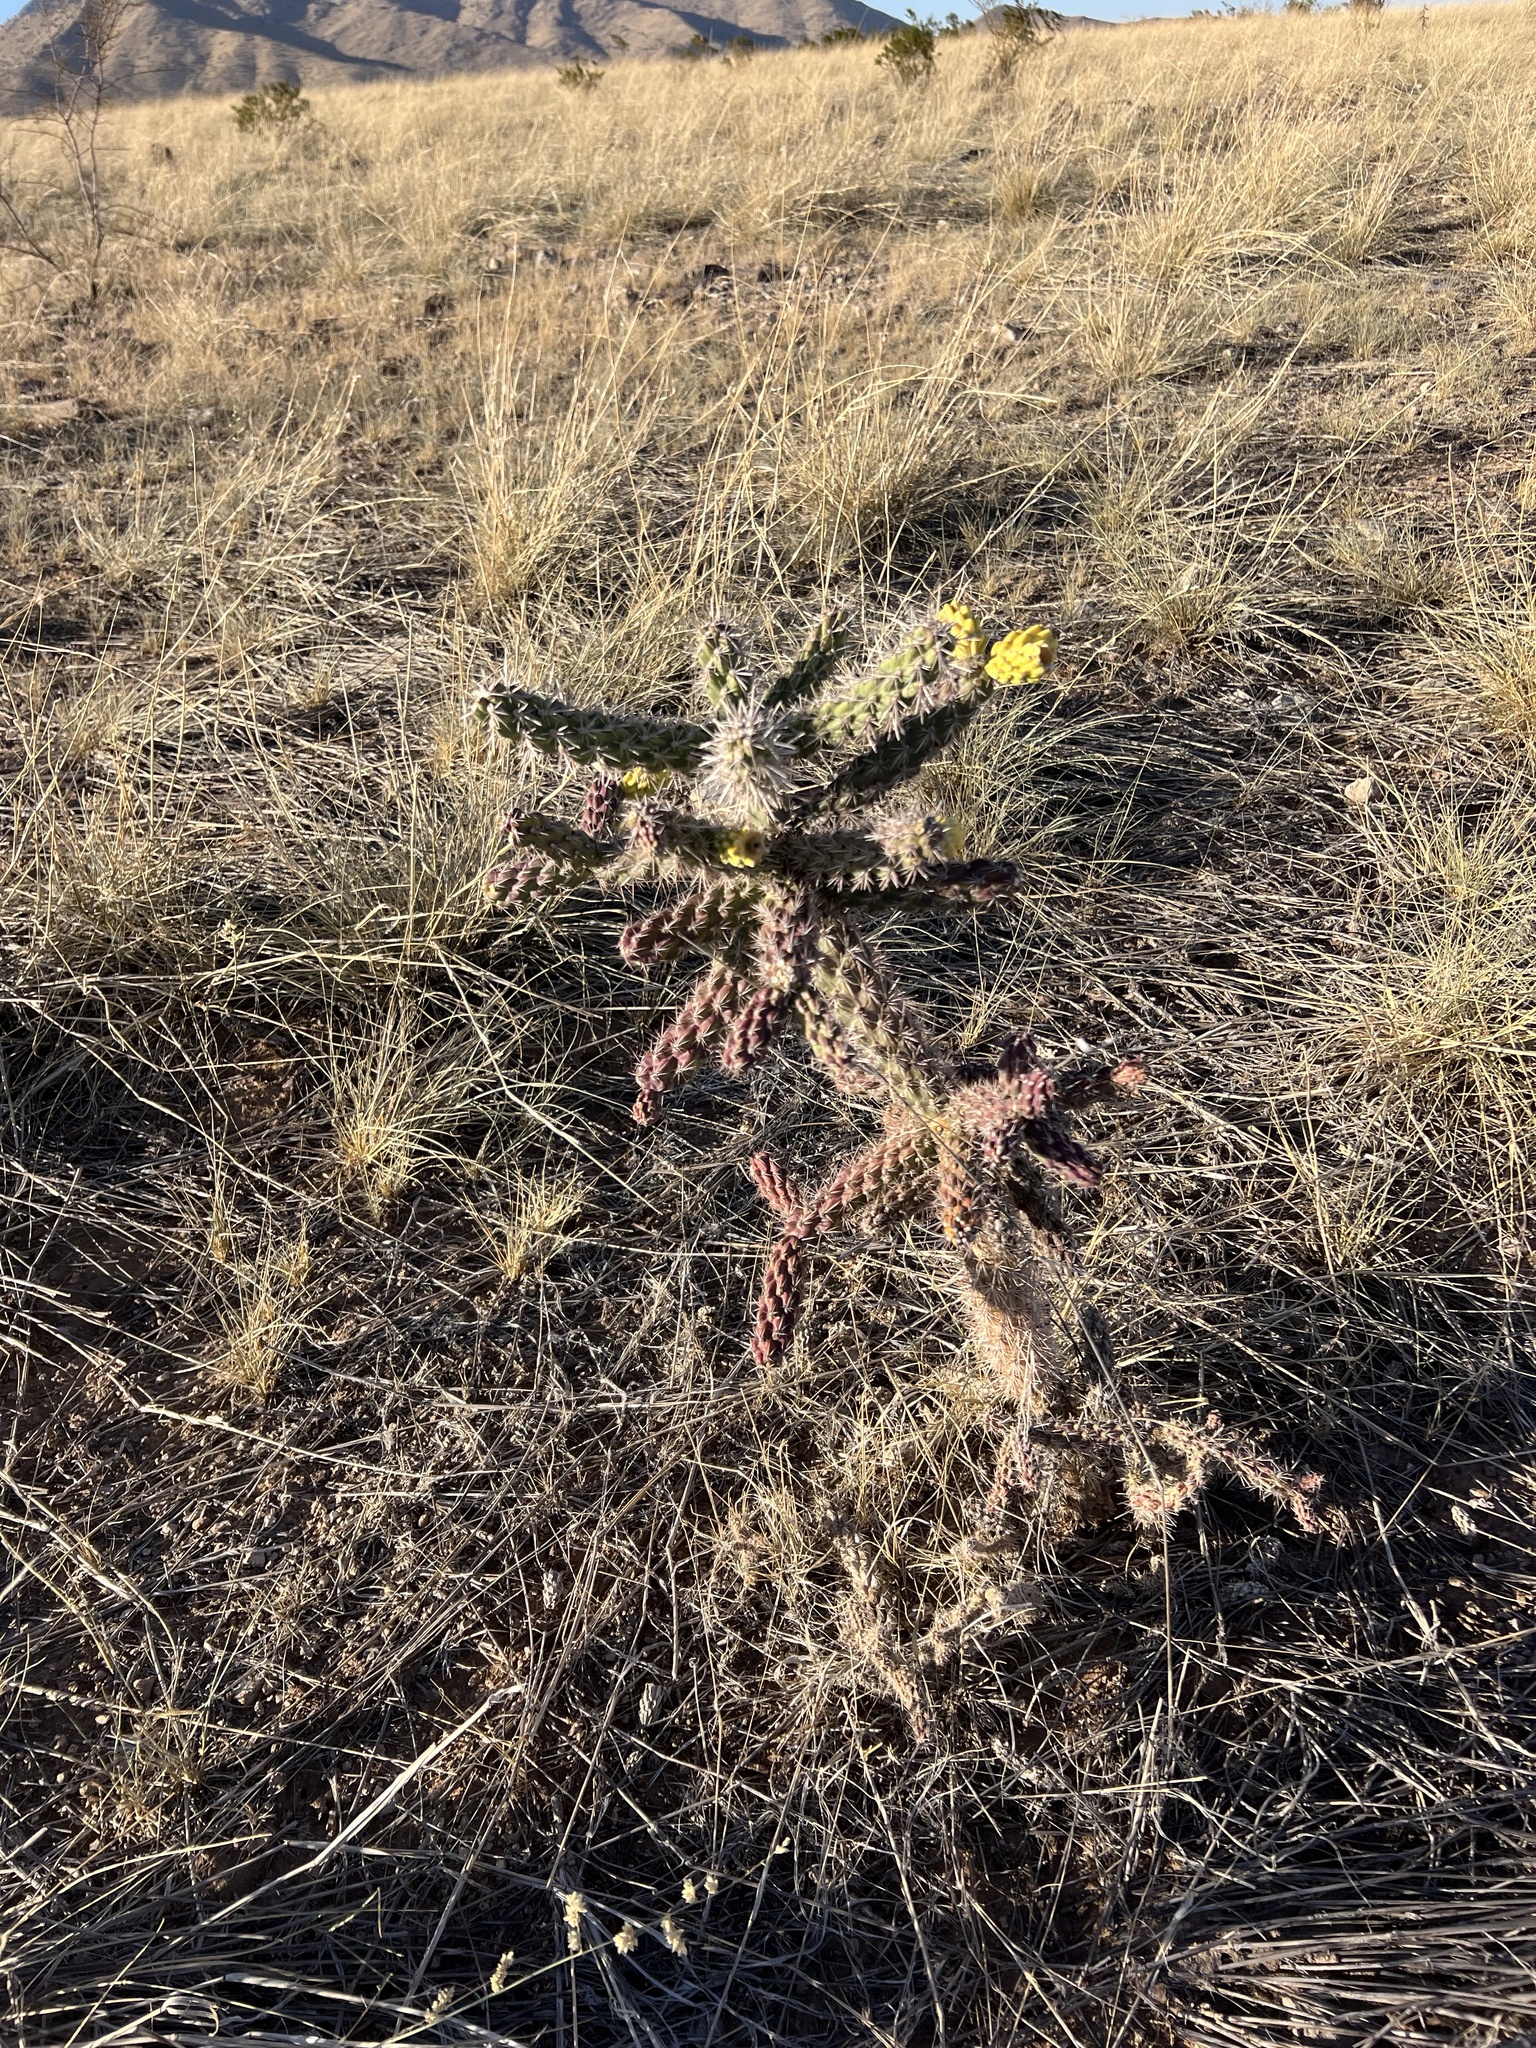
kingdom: Plantae
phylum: Tracheophyta
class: Magnoliopsida
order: Caryophyllales
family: Cactaceae
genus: Cylindropuntia
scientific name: Cylindropuntia imbricata
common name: Candelabrum cactus
